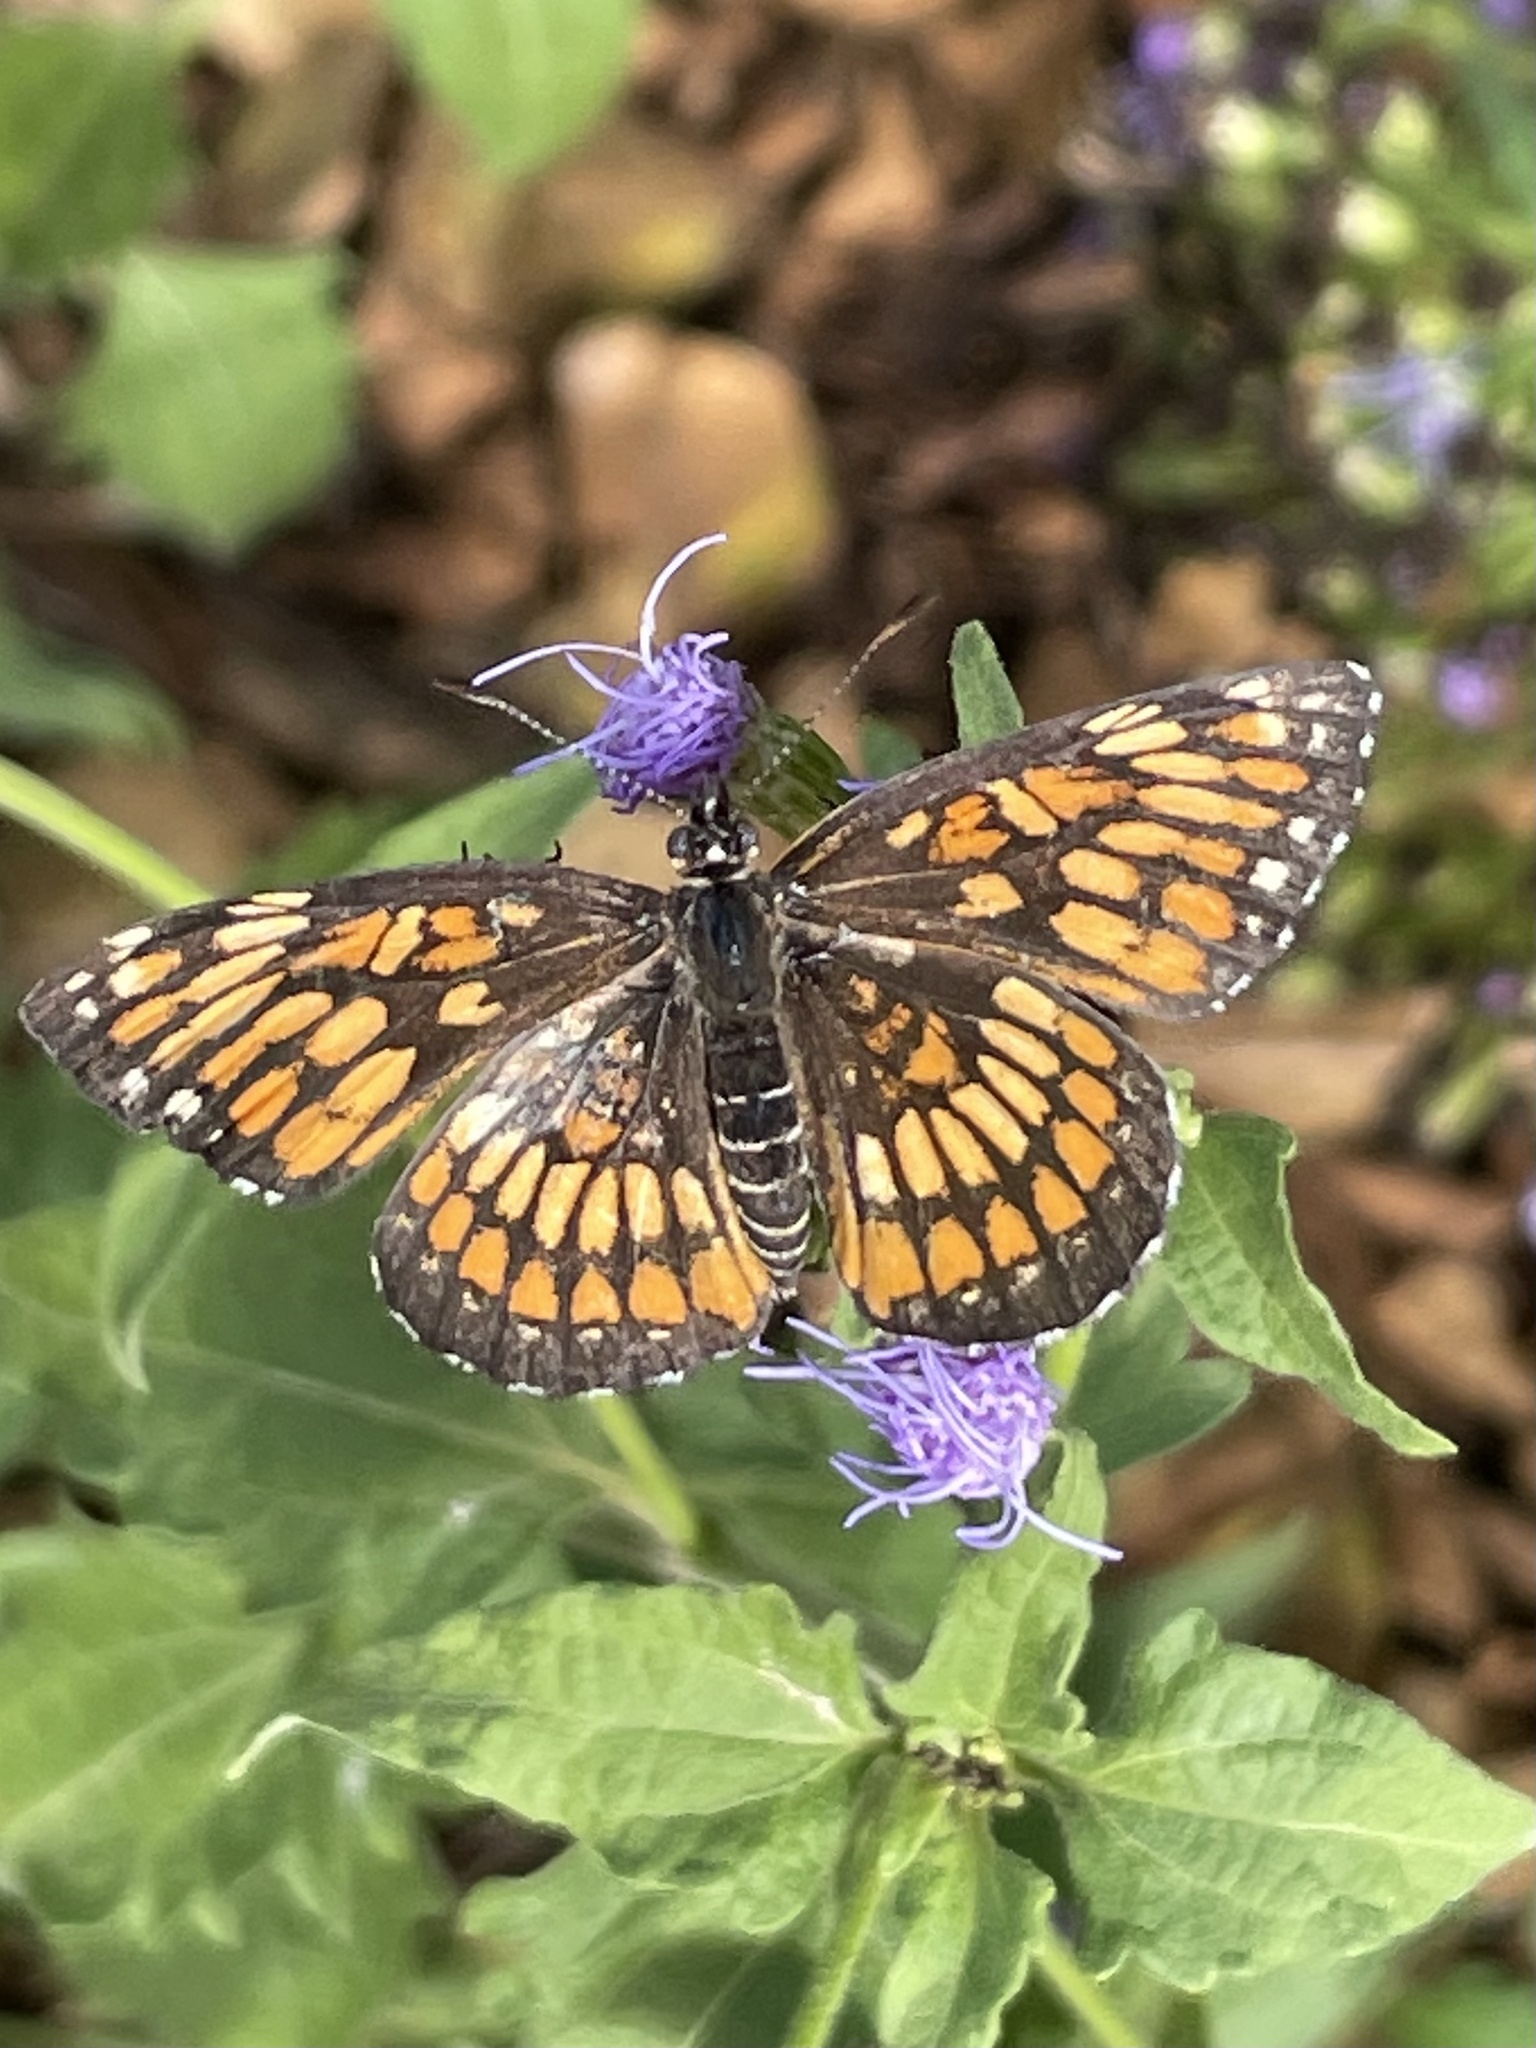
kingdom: Animalia
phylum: Arthropoda
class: Insecta
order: Lepidoptera
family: Nymphalidae
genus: Thessalia
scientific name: Thessalia theona
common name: Nymphalid moth
